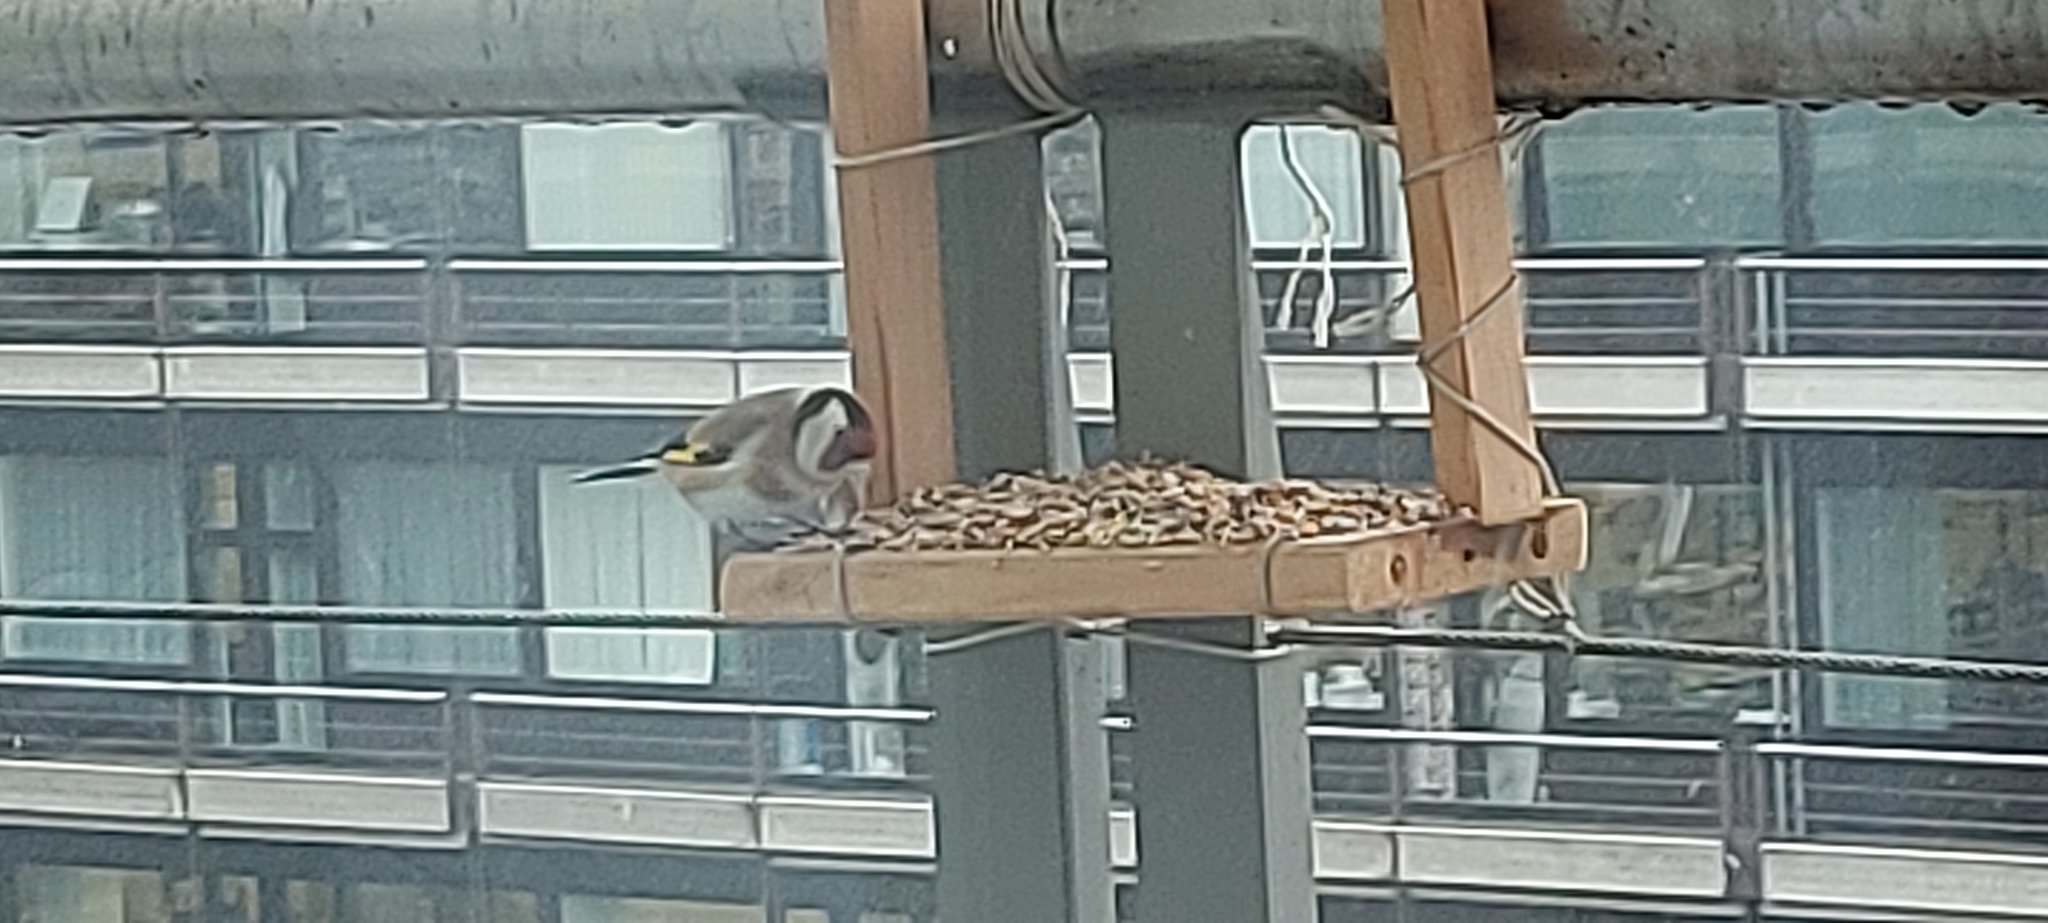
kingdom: Animalia
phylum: Chordata
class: Aves
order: Passeriformes
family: Fringillidae
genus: Carduelis
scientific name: Carduelis carduelis
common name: European goldfinch
